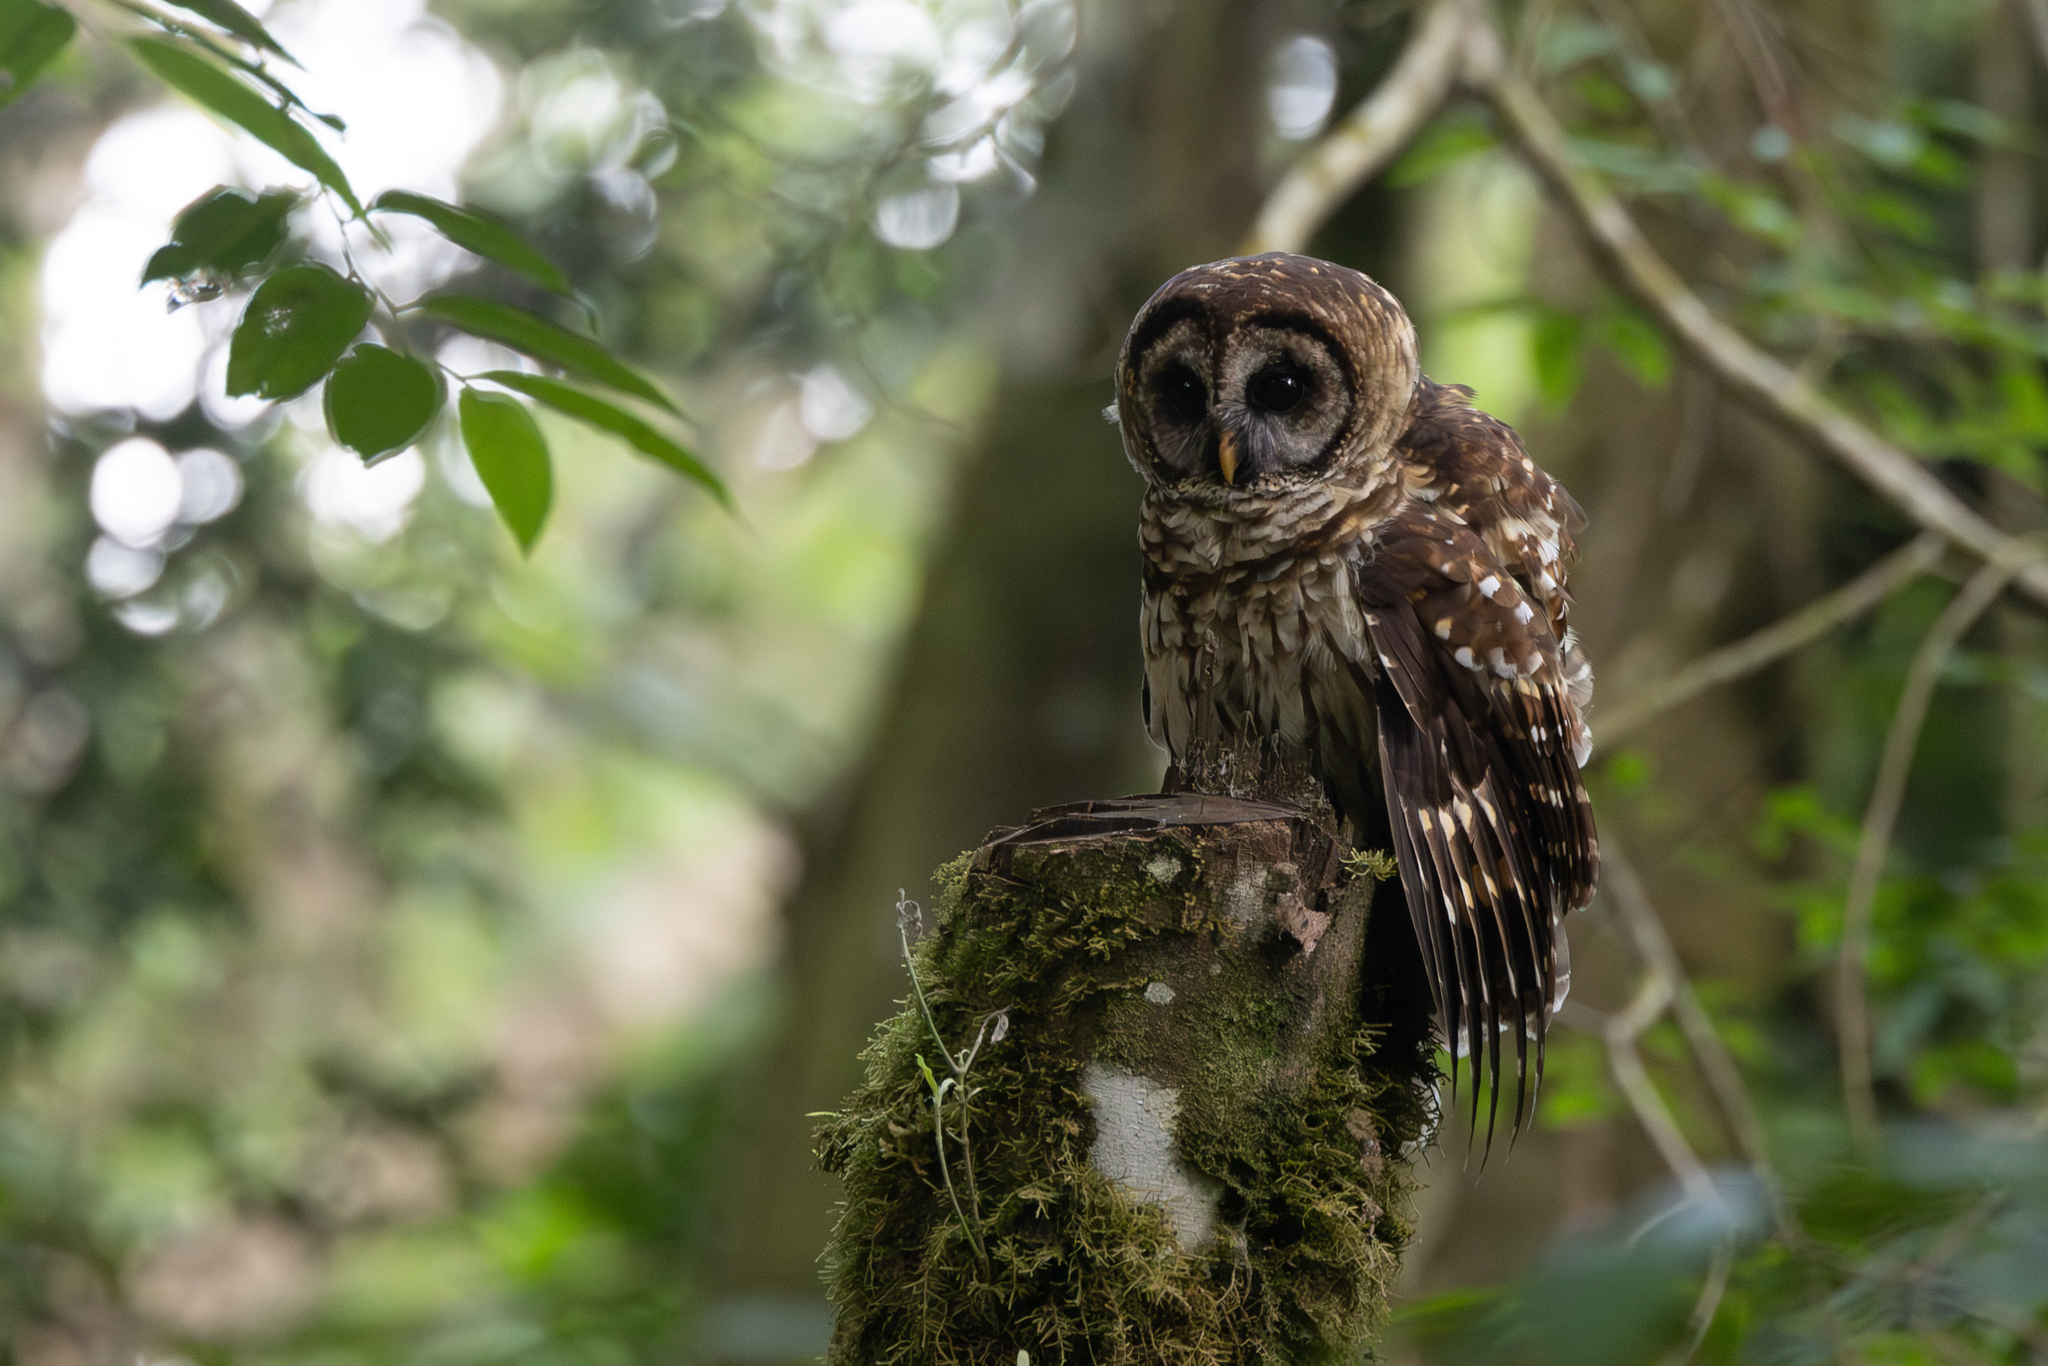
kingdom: Animalia
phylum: Chordata
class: Aves
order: Strigiformes
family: Strigidae
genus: Strix
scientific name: Strix fulvescens
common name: Fulvous owl
